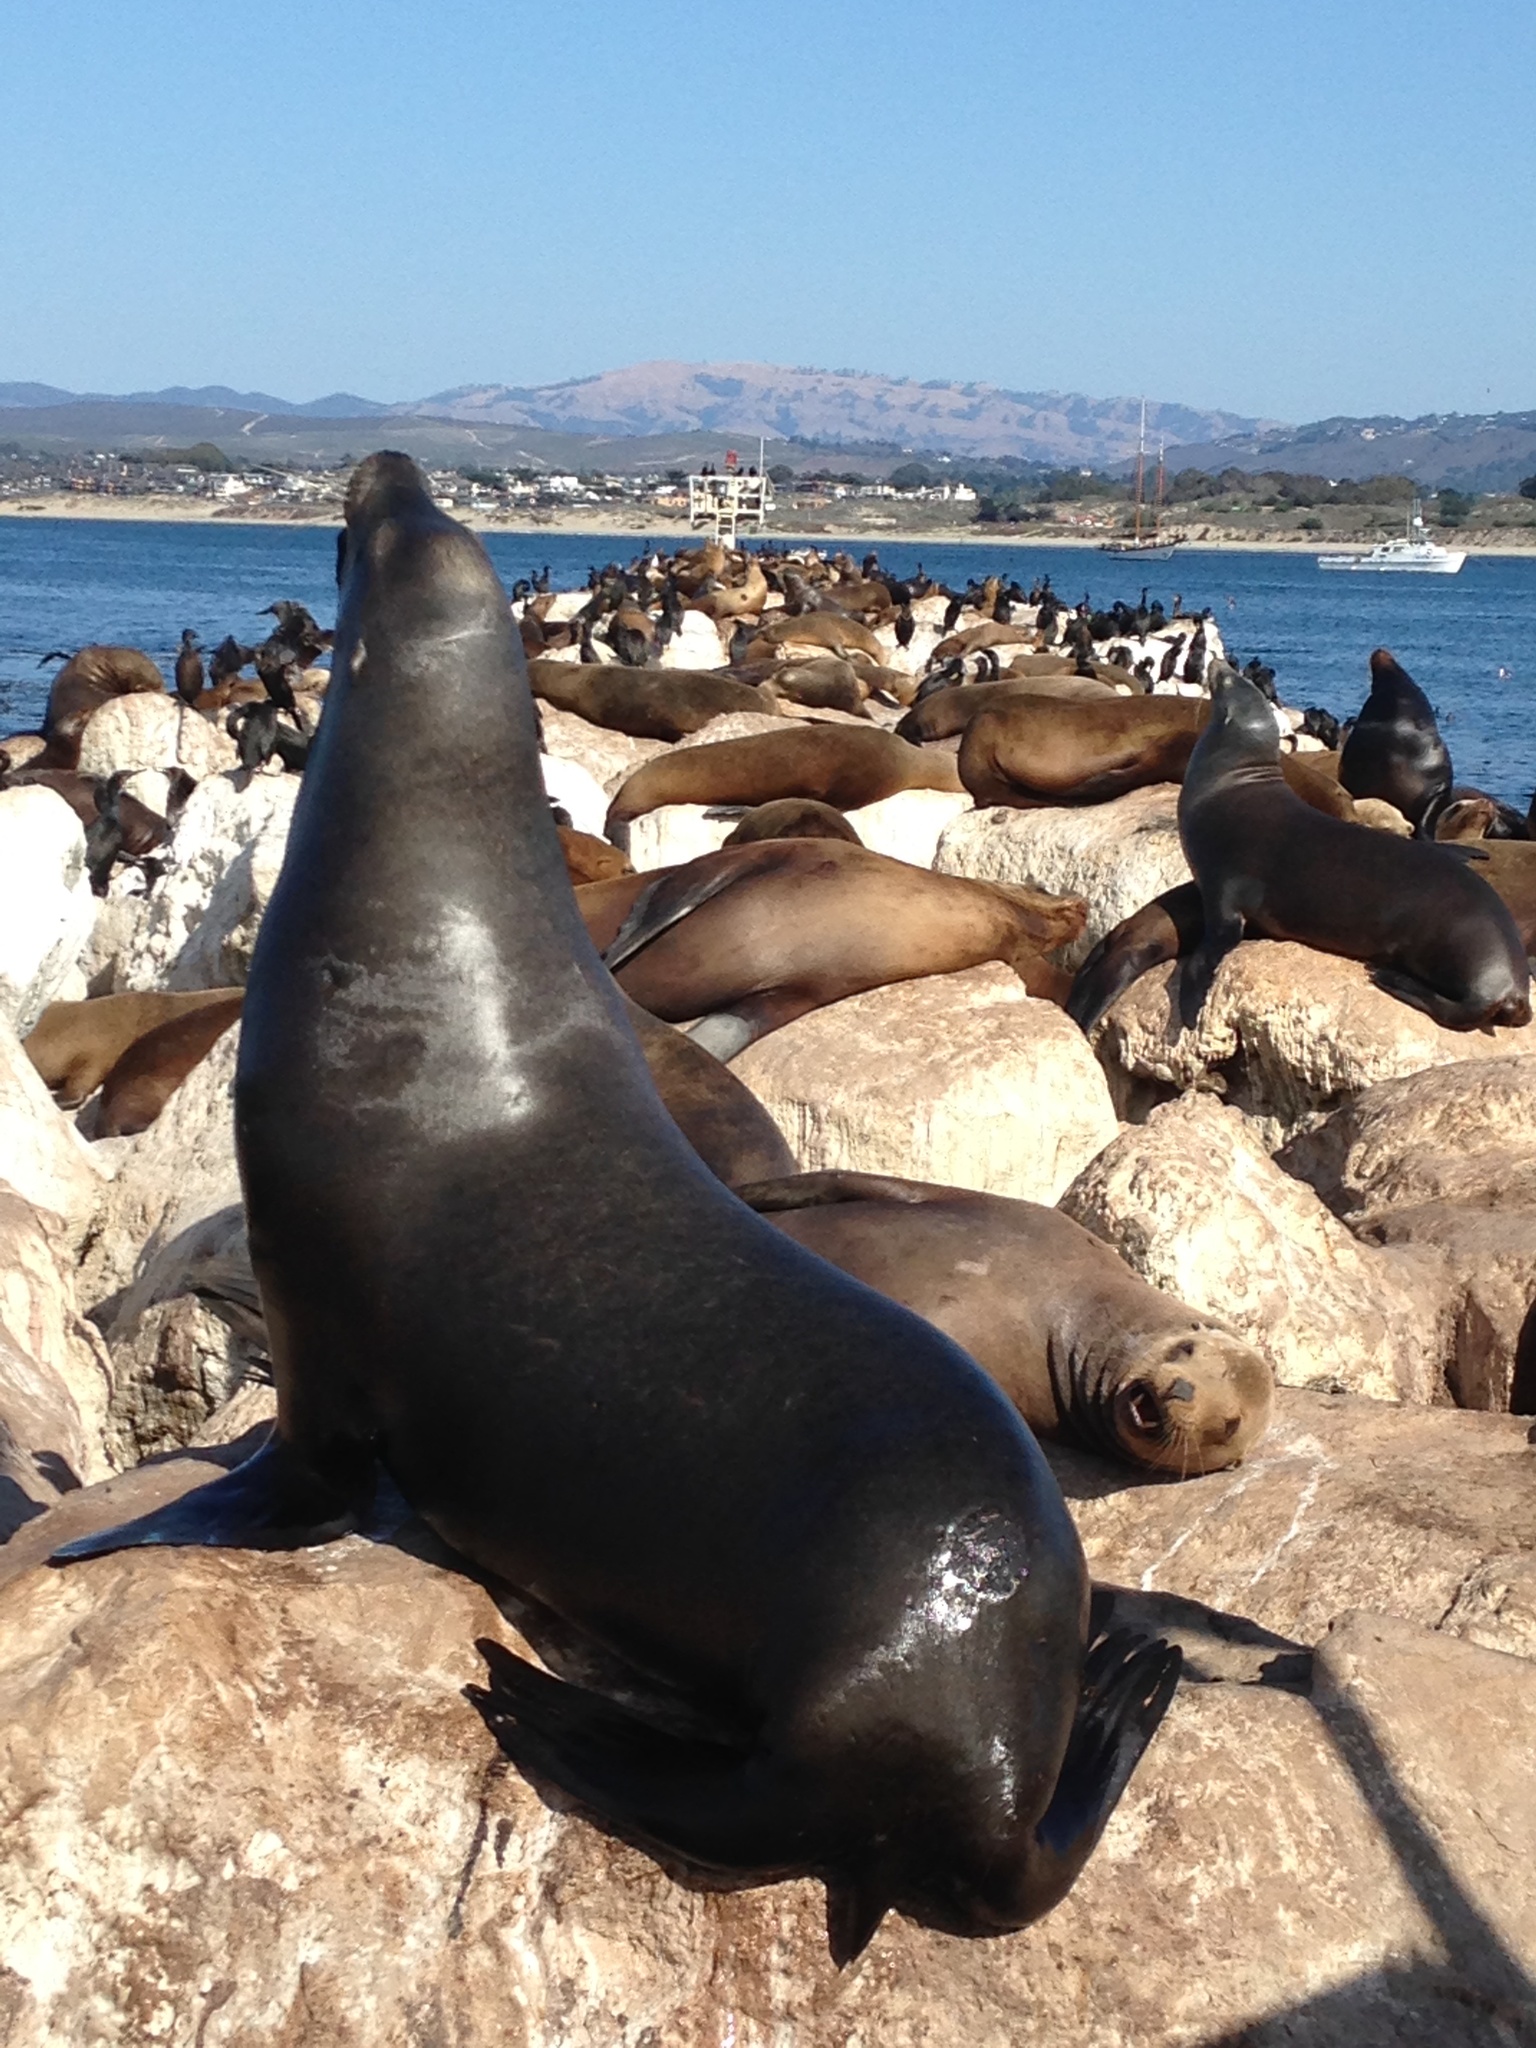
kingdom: Animalia
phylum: Chordata
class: Mammalia
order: Carnivora
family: Otariidae
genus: Zalophus
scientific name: Zalophus californianus
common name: California sea lion
